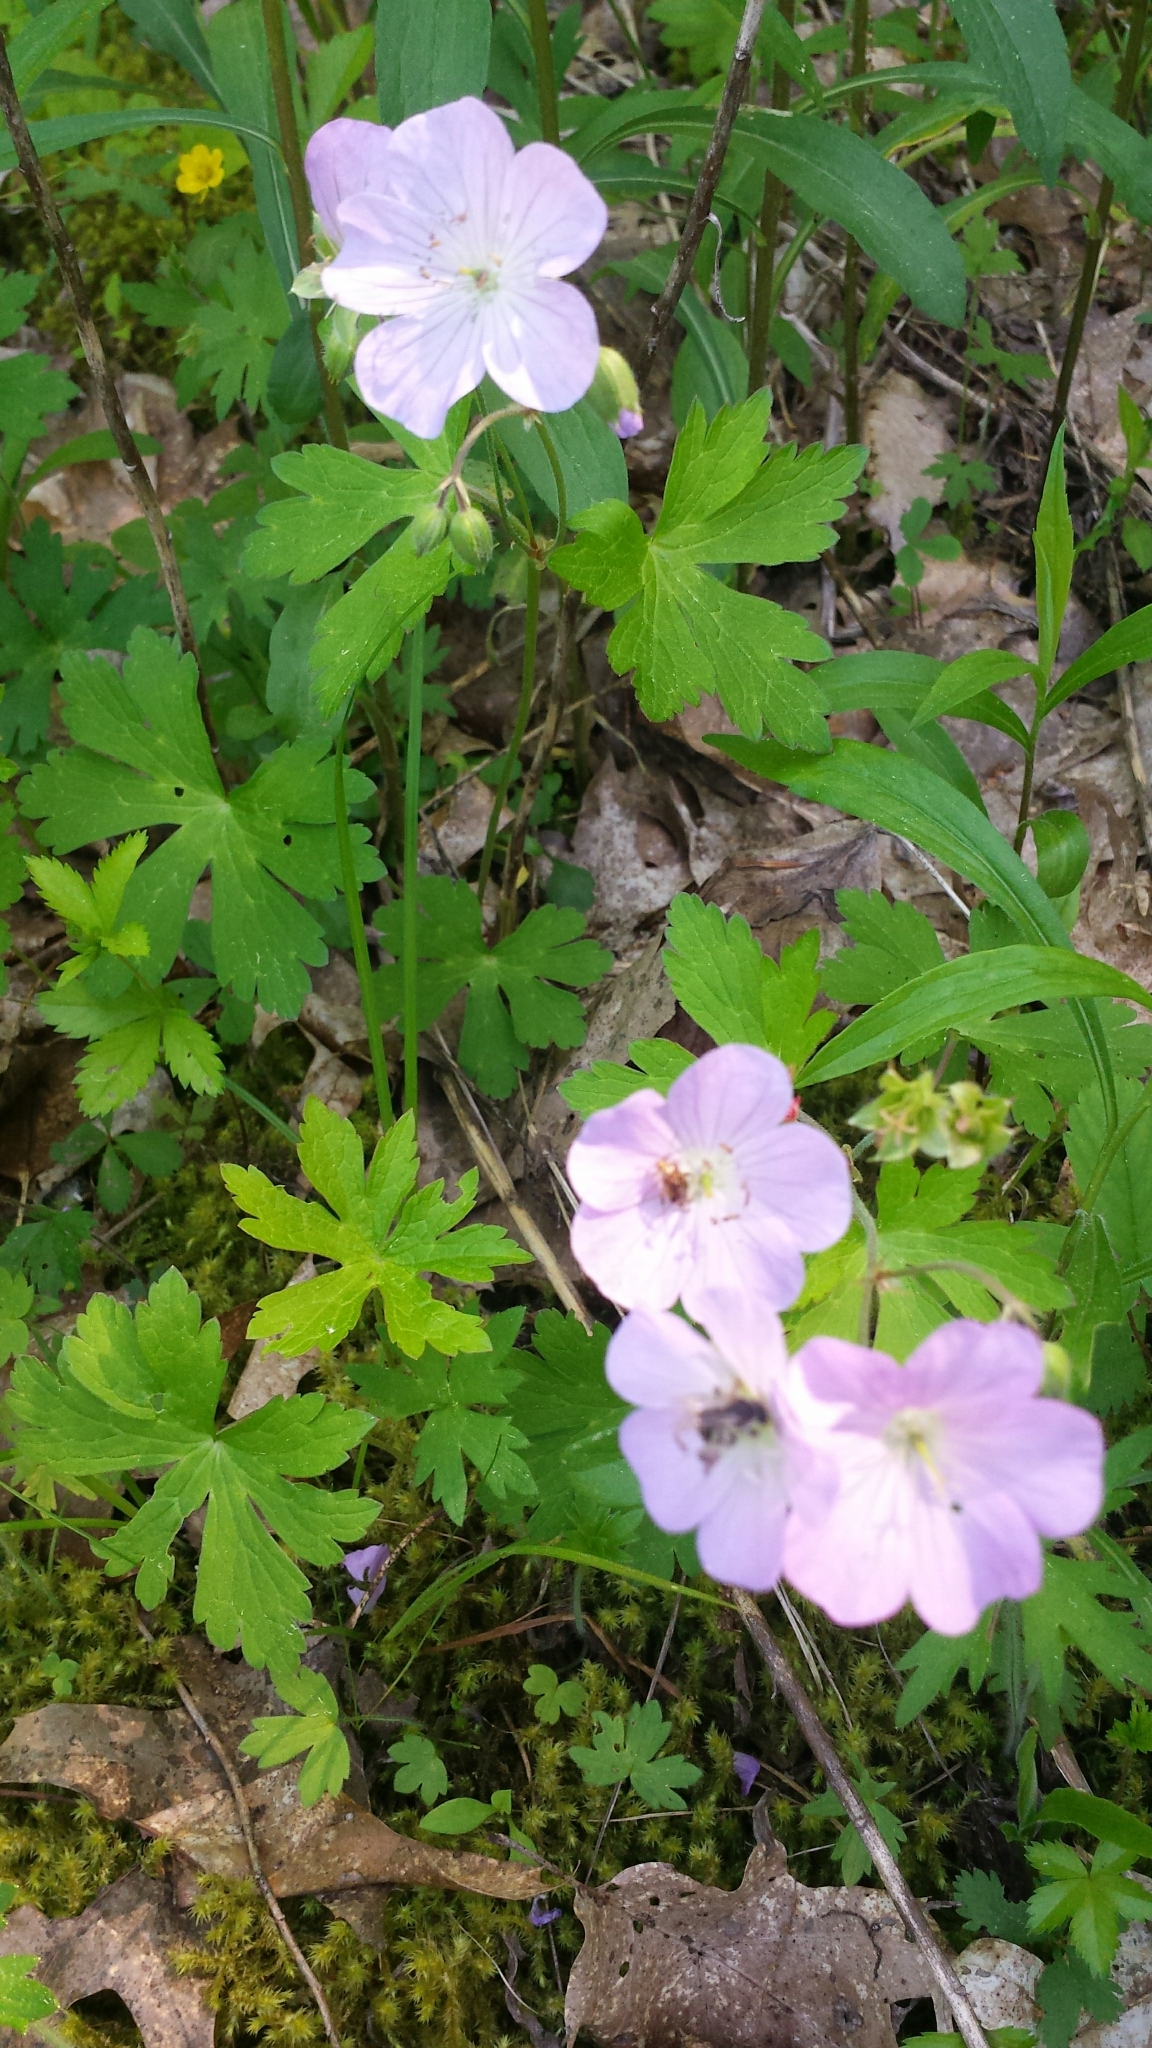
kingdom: Plantae
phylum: Tracheophyta
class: Magnoliopsida
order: Geraniales
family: Geraniaceae
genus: Geranium
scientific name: Geranium maculatum
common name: Spotted geranium
